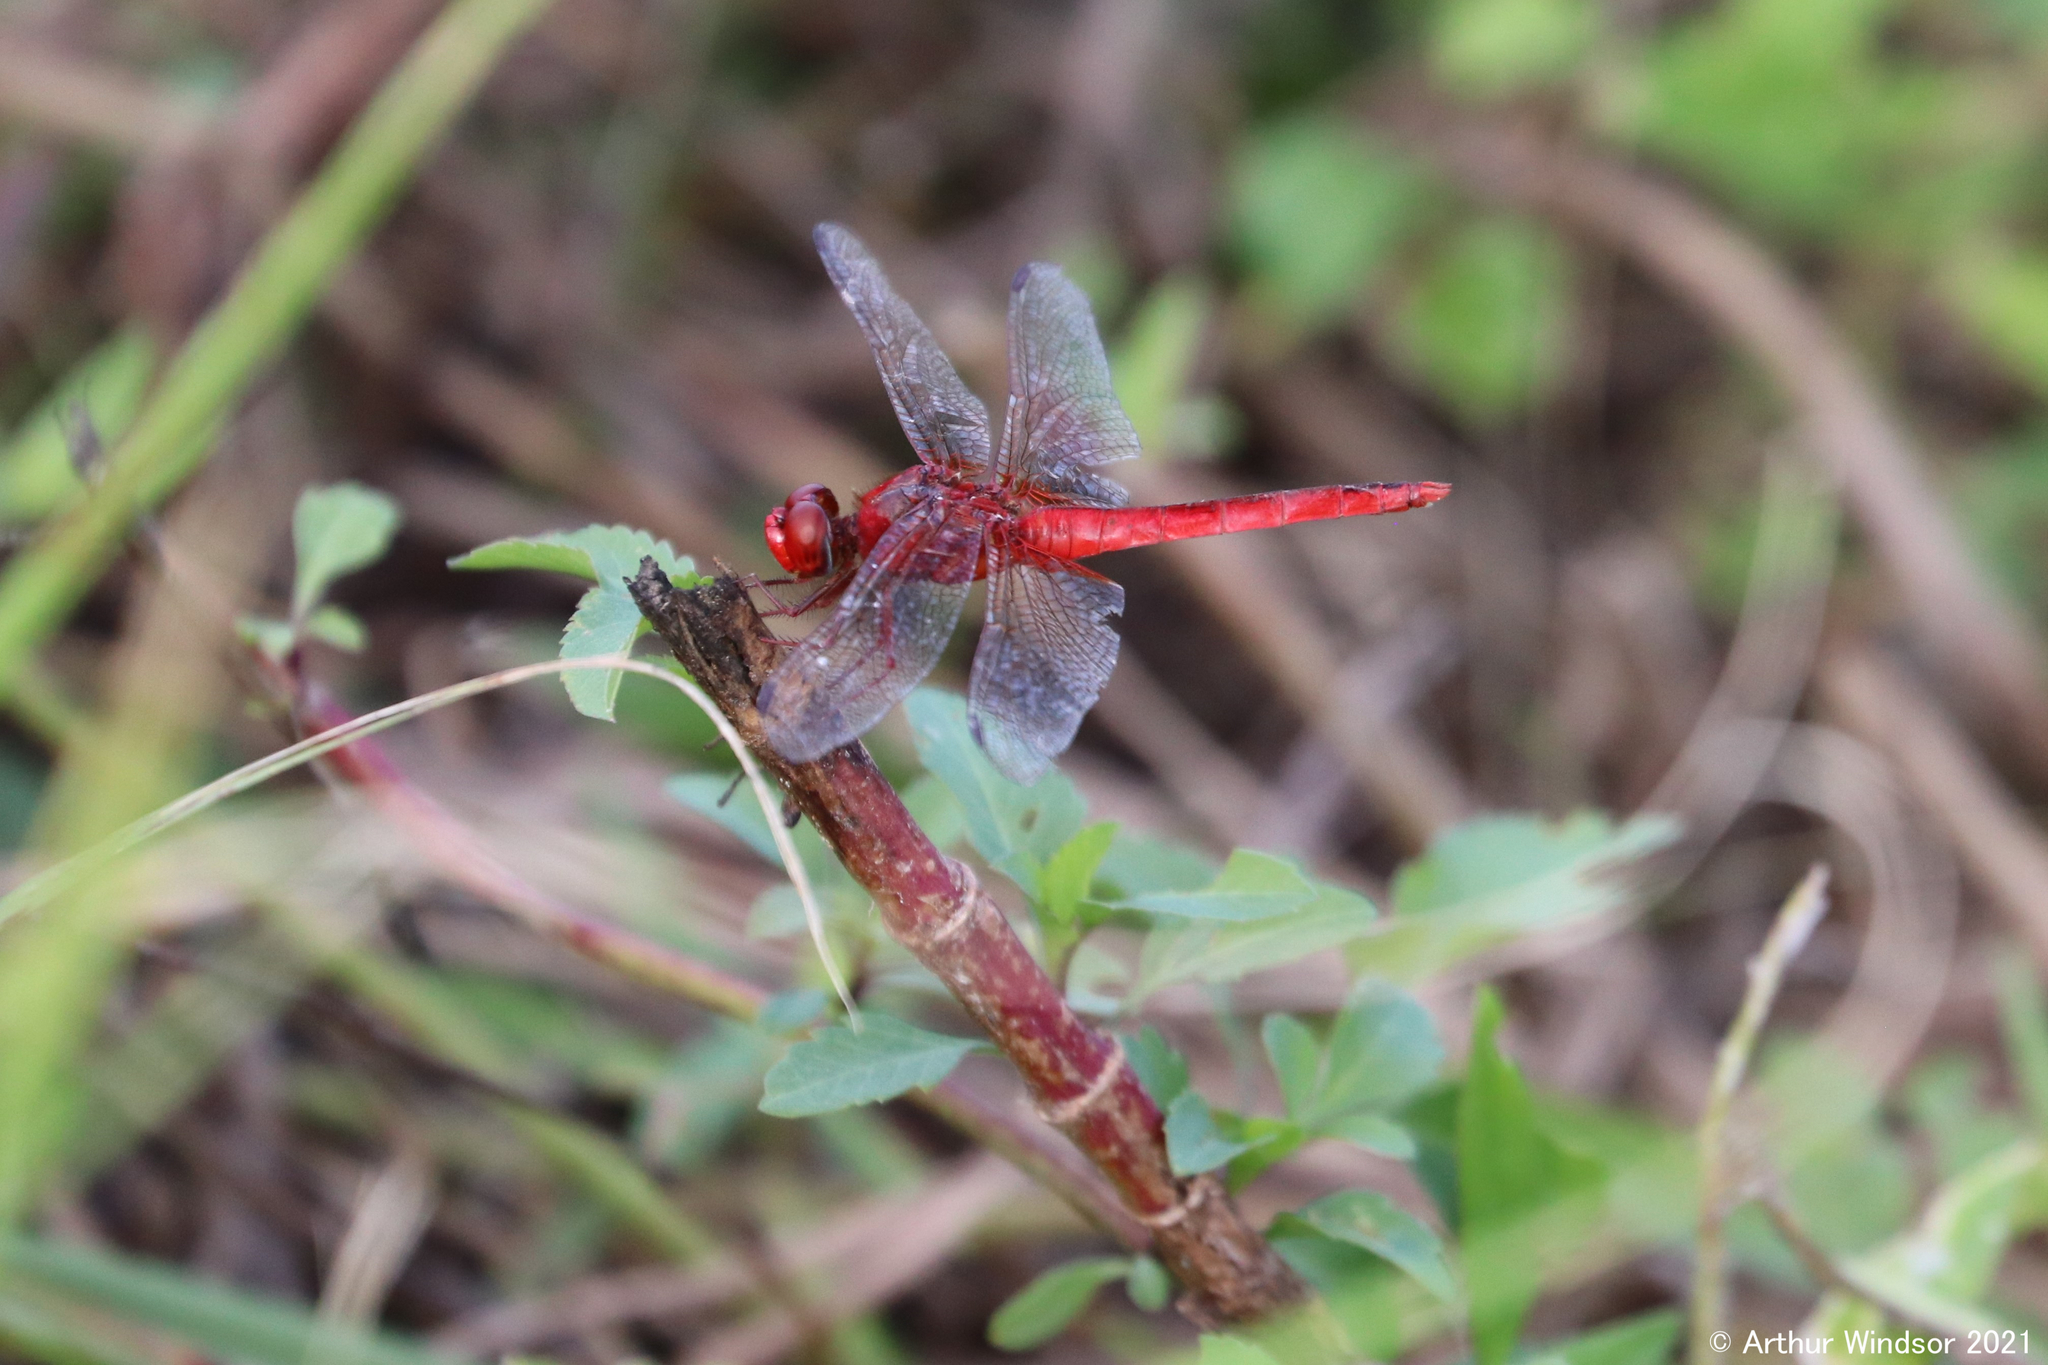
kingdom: Animalia
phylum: Arthropoda
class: Insecta
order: Odonata
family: Libellulidae
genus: Crocothemis
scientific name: Crocothemis servilia
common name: Scarlet skimmer
